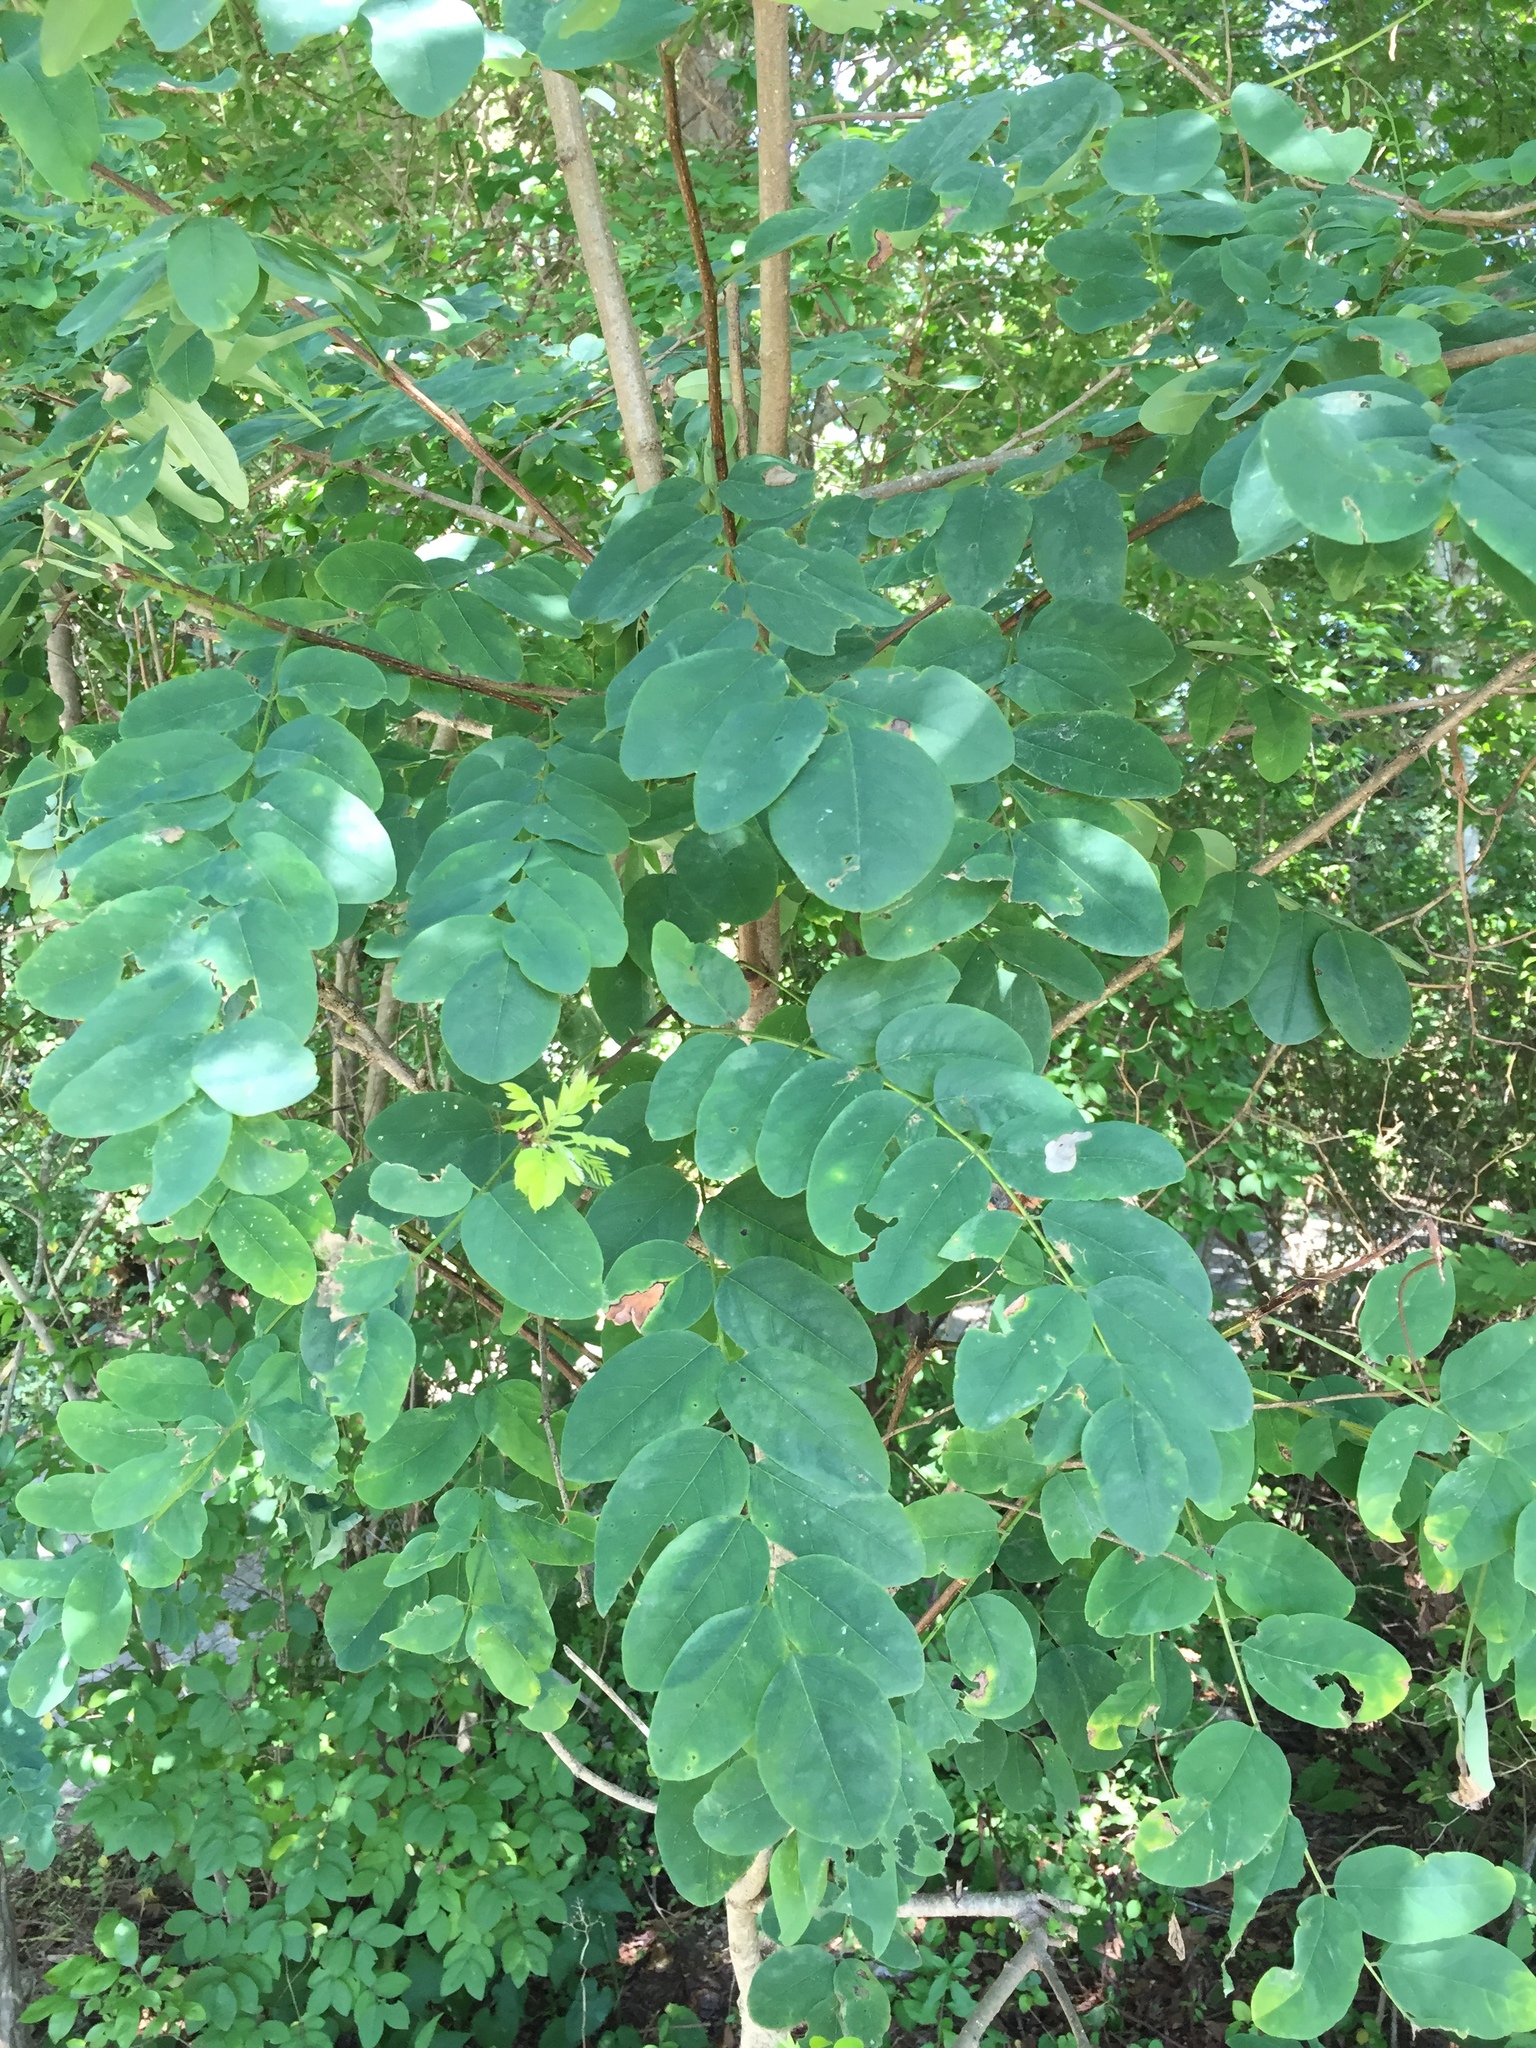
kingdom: Plantae
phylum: Tracheophyta
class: Magnoliopsida
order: Fabales
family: Fabaceae
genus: Robinia
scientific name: Robinia pseudoacacia
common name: Black locust
